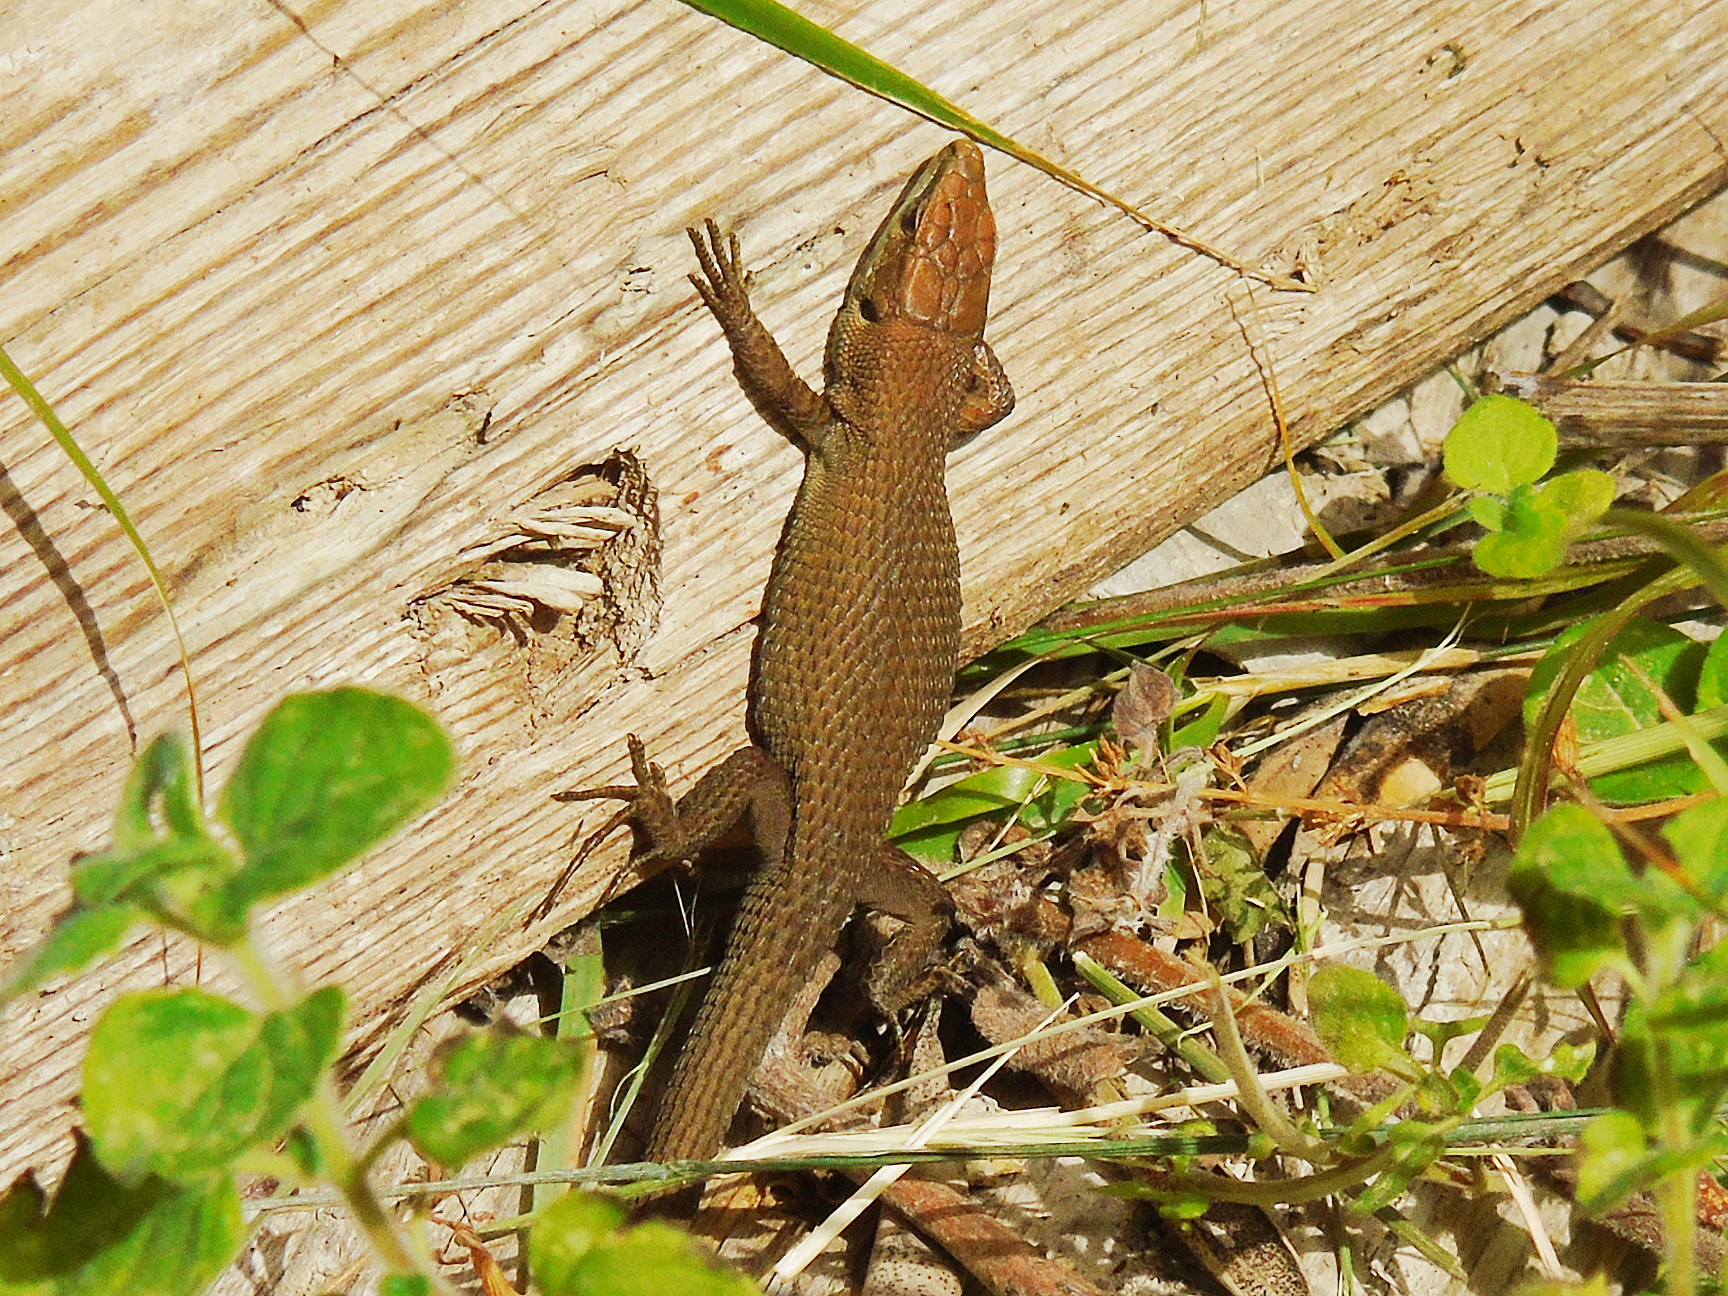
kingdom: Animalia
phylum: Chordata
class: Squamata
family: Lacertidae
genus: Algyroides
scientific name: Algyroides moreoticus
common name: Greek algyroides
